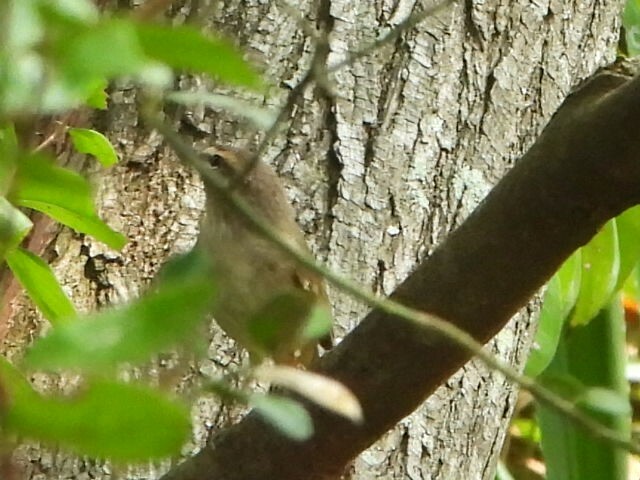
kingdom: Animalia
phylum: Chordata
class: Aves
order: Passeriformes
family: Phylloscopidae
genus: Phylloscopus
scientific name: Phylloscopus fuscatus
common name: Dusky warbler
